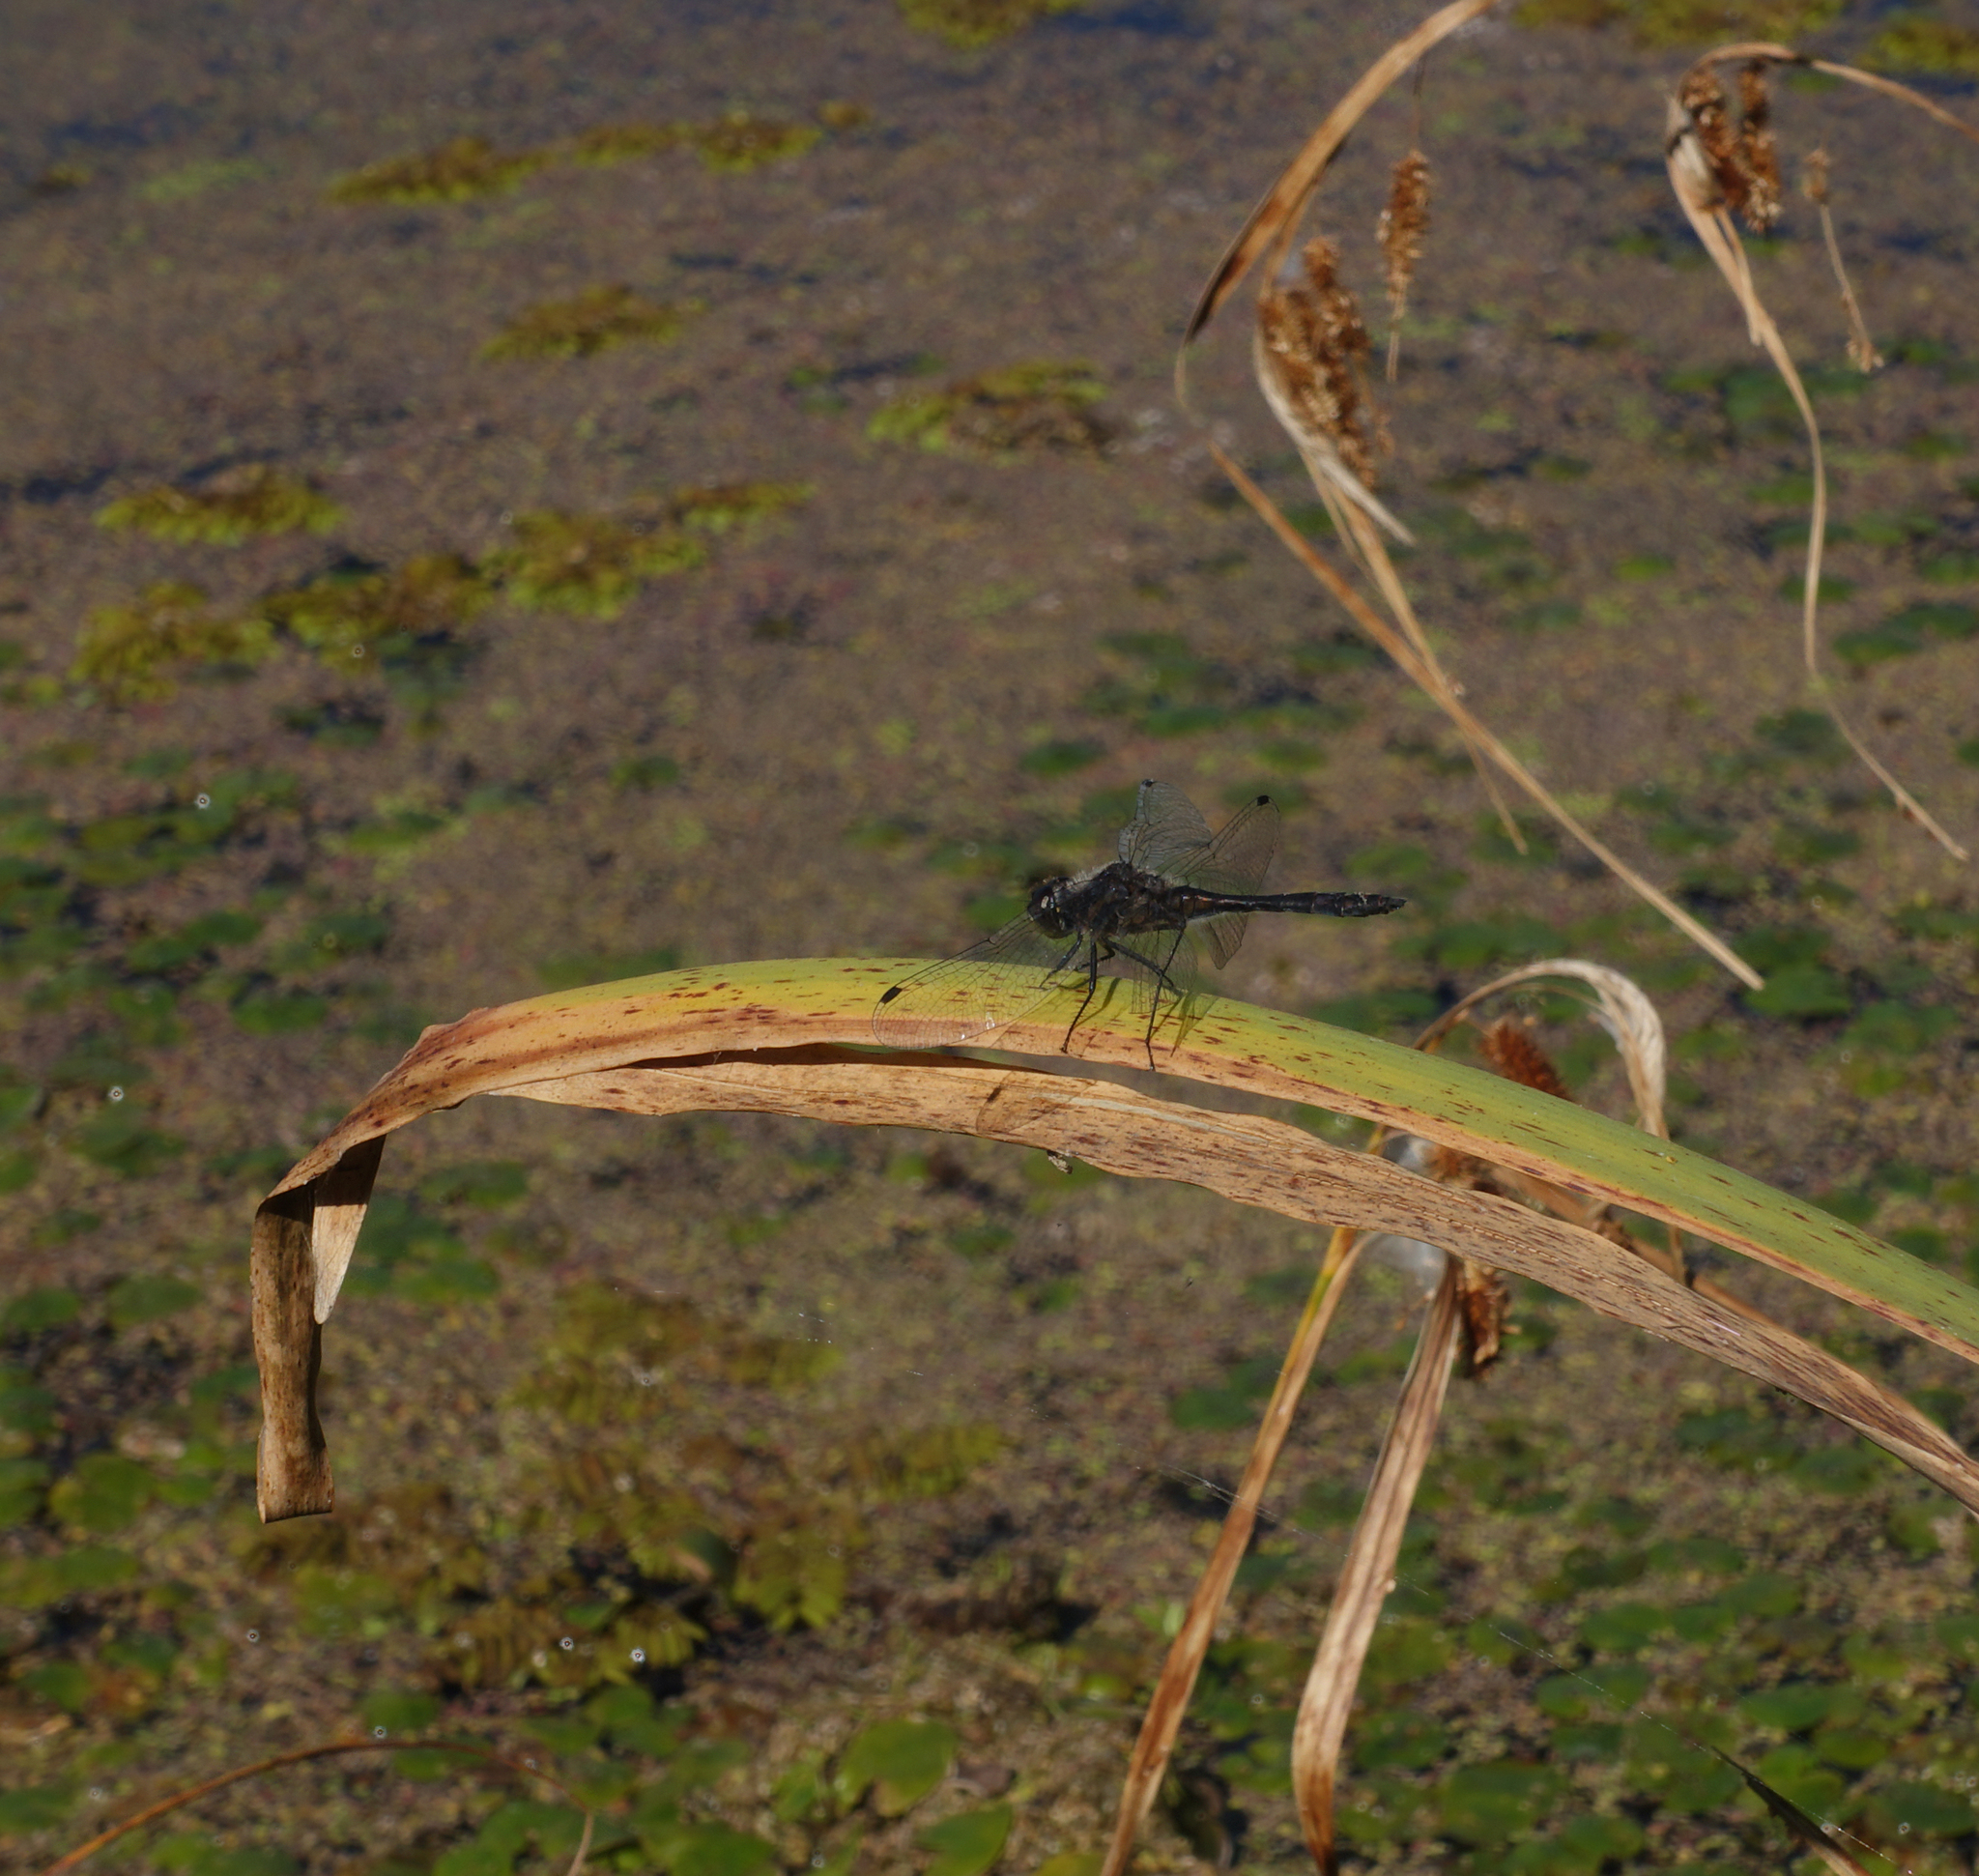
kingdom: Animalia
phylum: Arthropoda
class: Insecta
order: Odonata
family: Libellulidae
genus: Sympetrum
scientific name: Sympetrum danae
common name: Black darter
